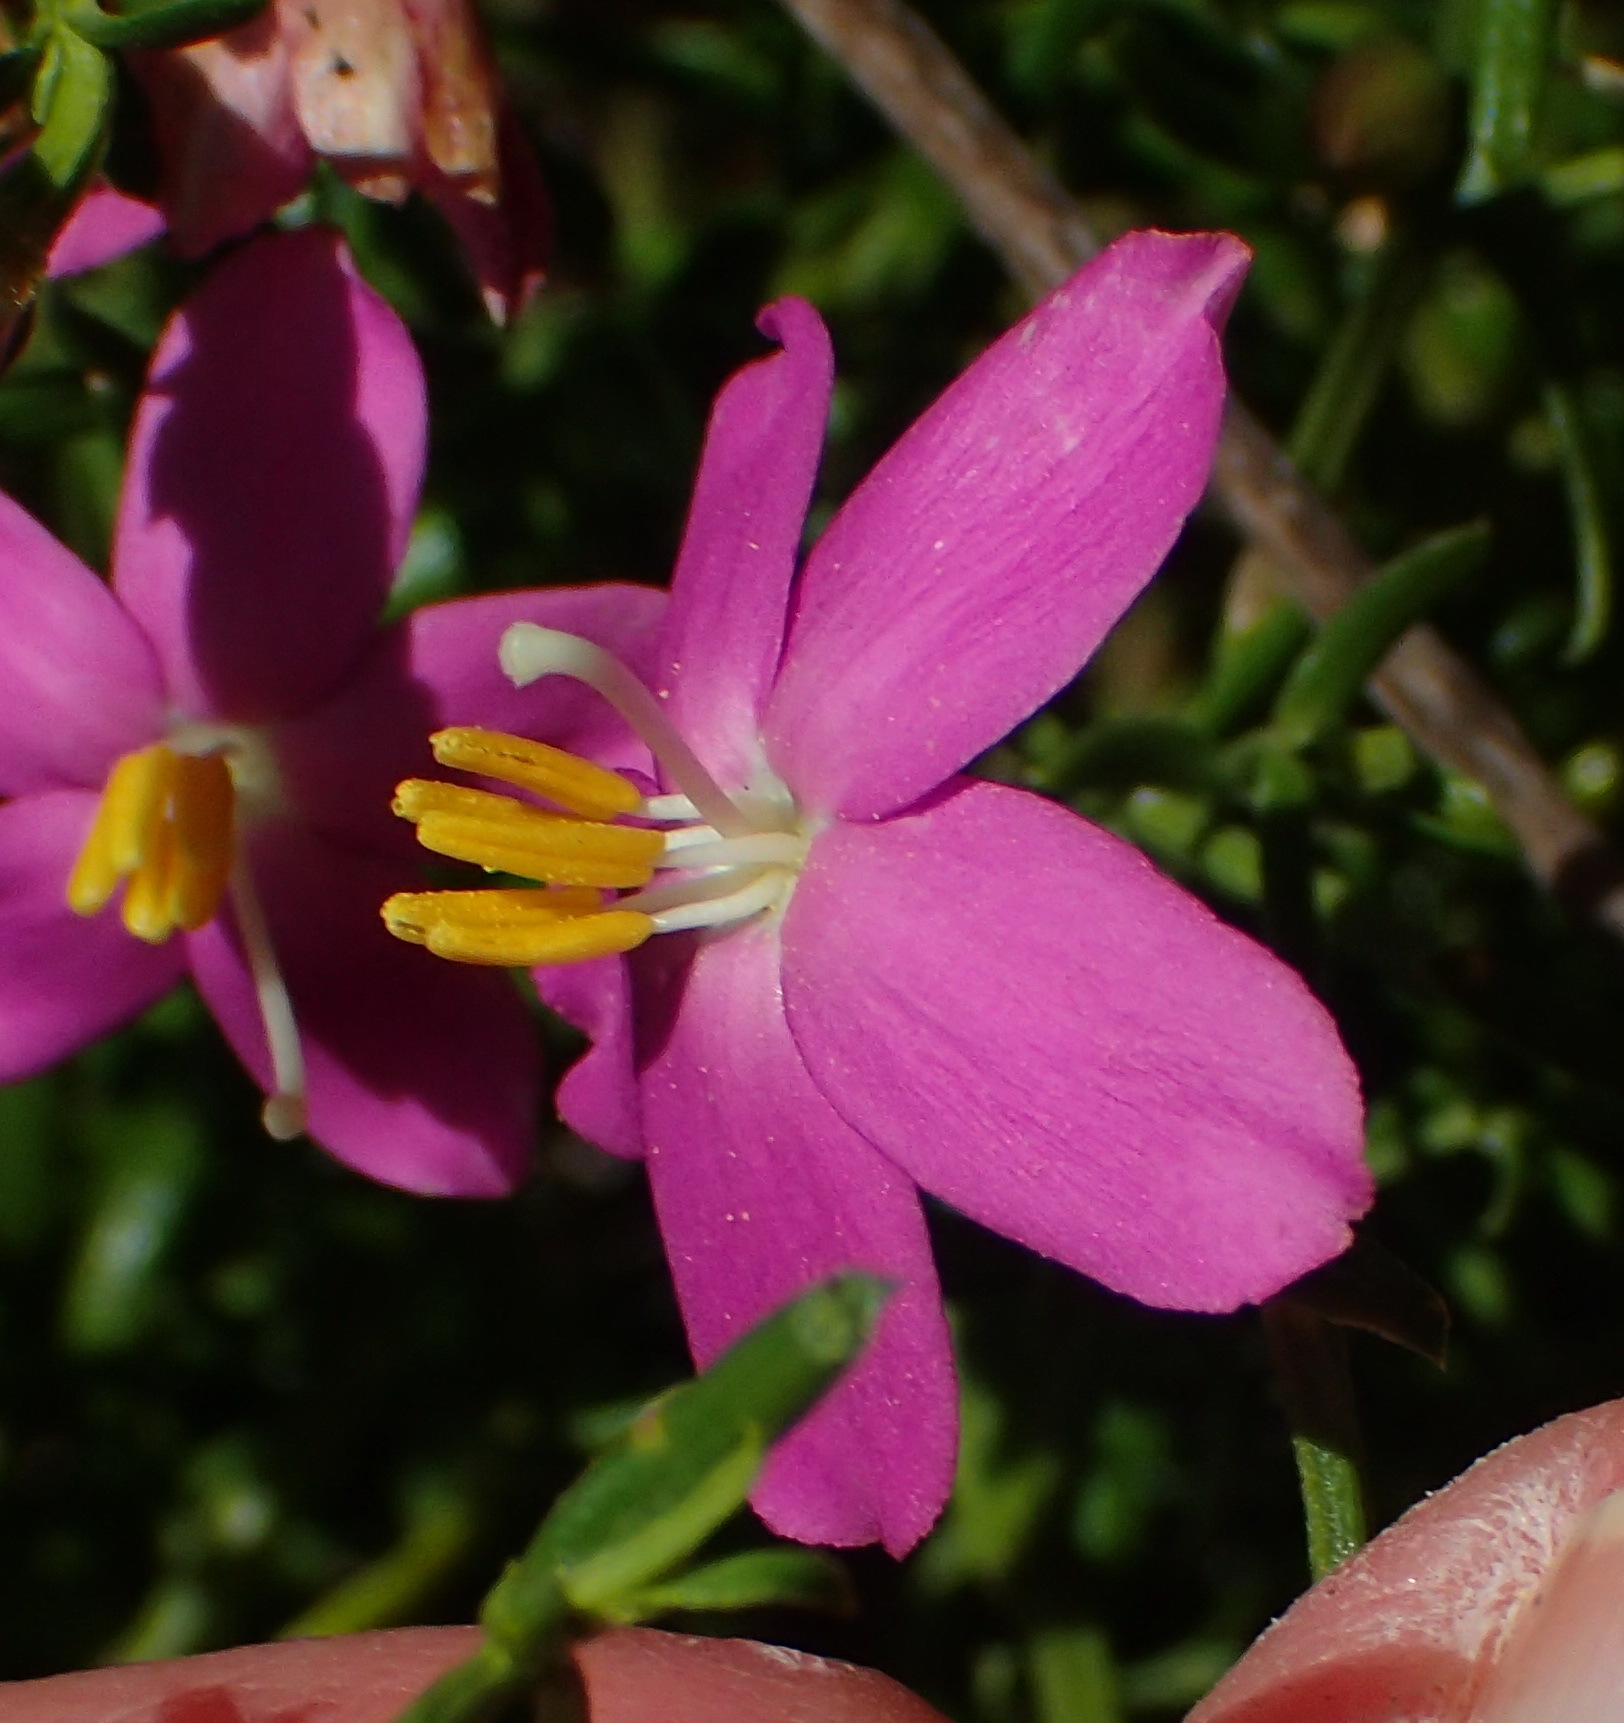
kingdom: Plantae
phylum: Tracheophyta
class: Magnoliopsida
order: Gentianales
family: Gentianaceae
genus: Chironia
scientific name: Chironia baccifera
